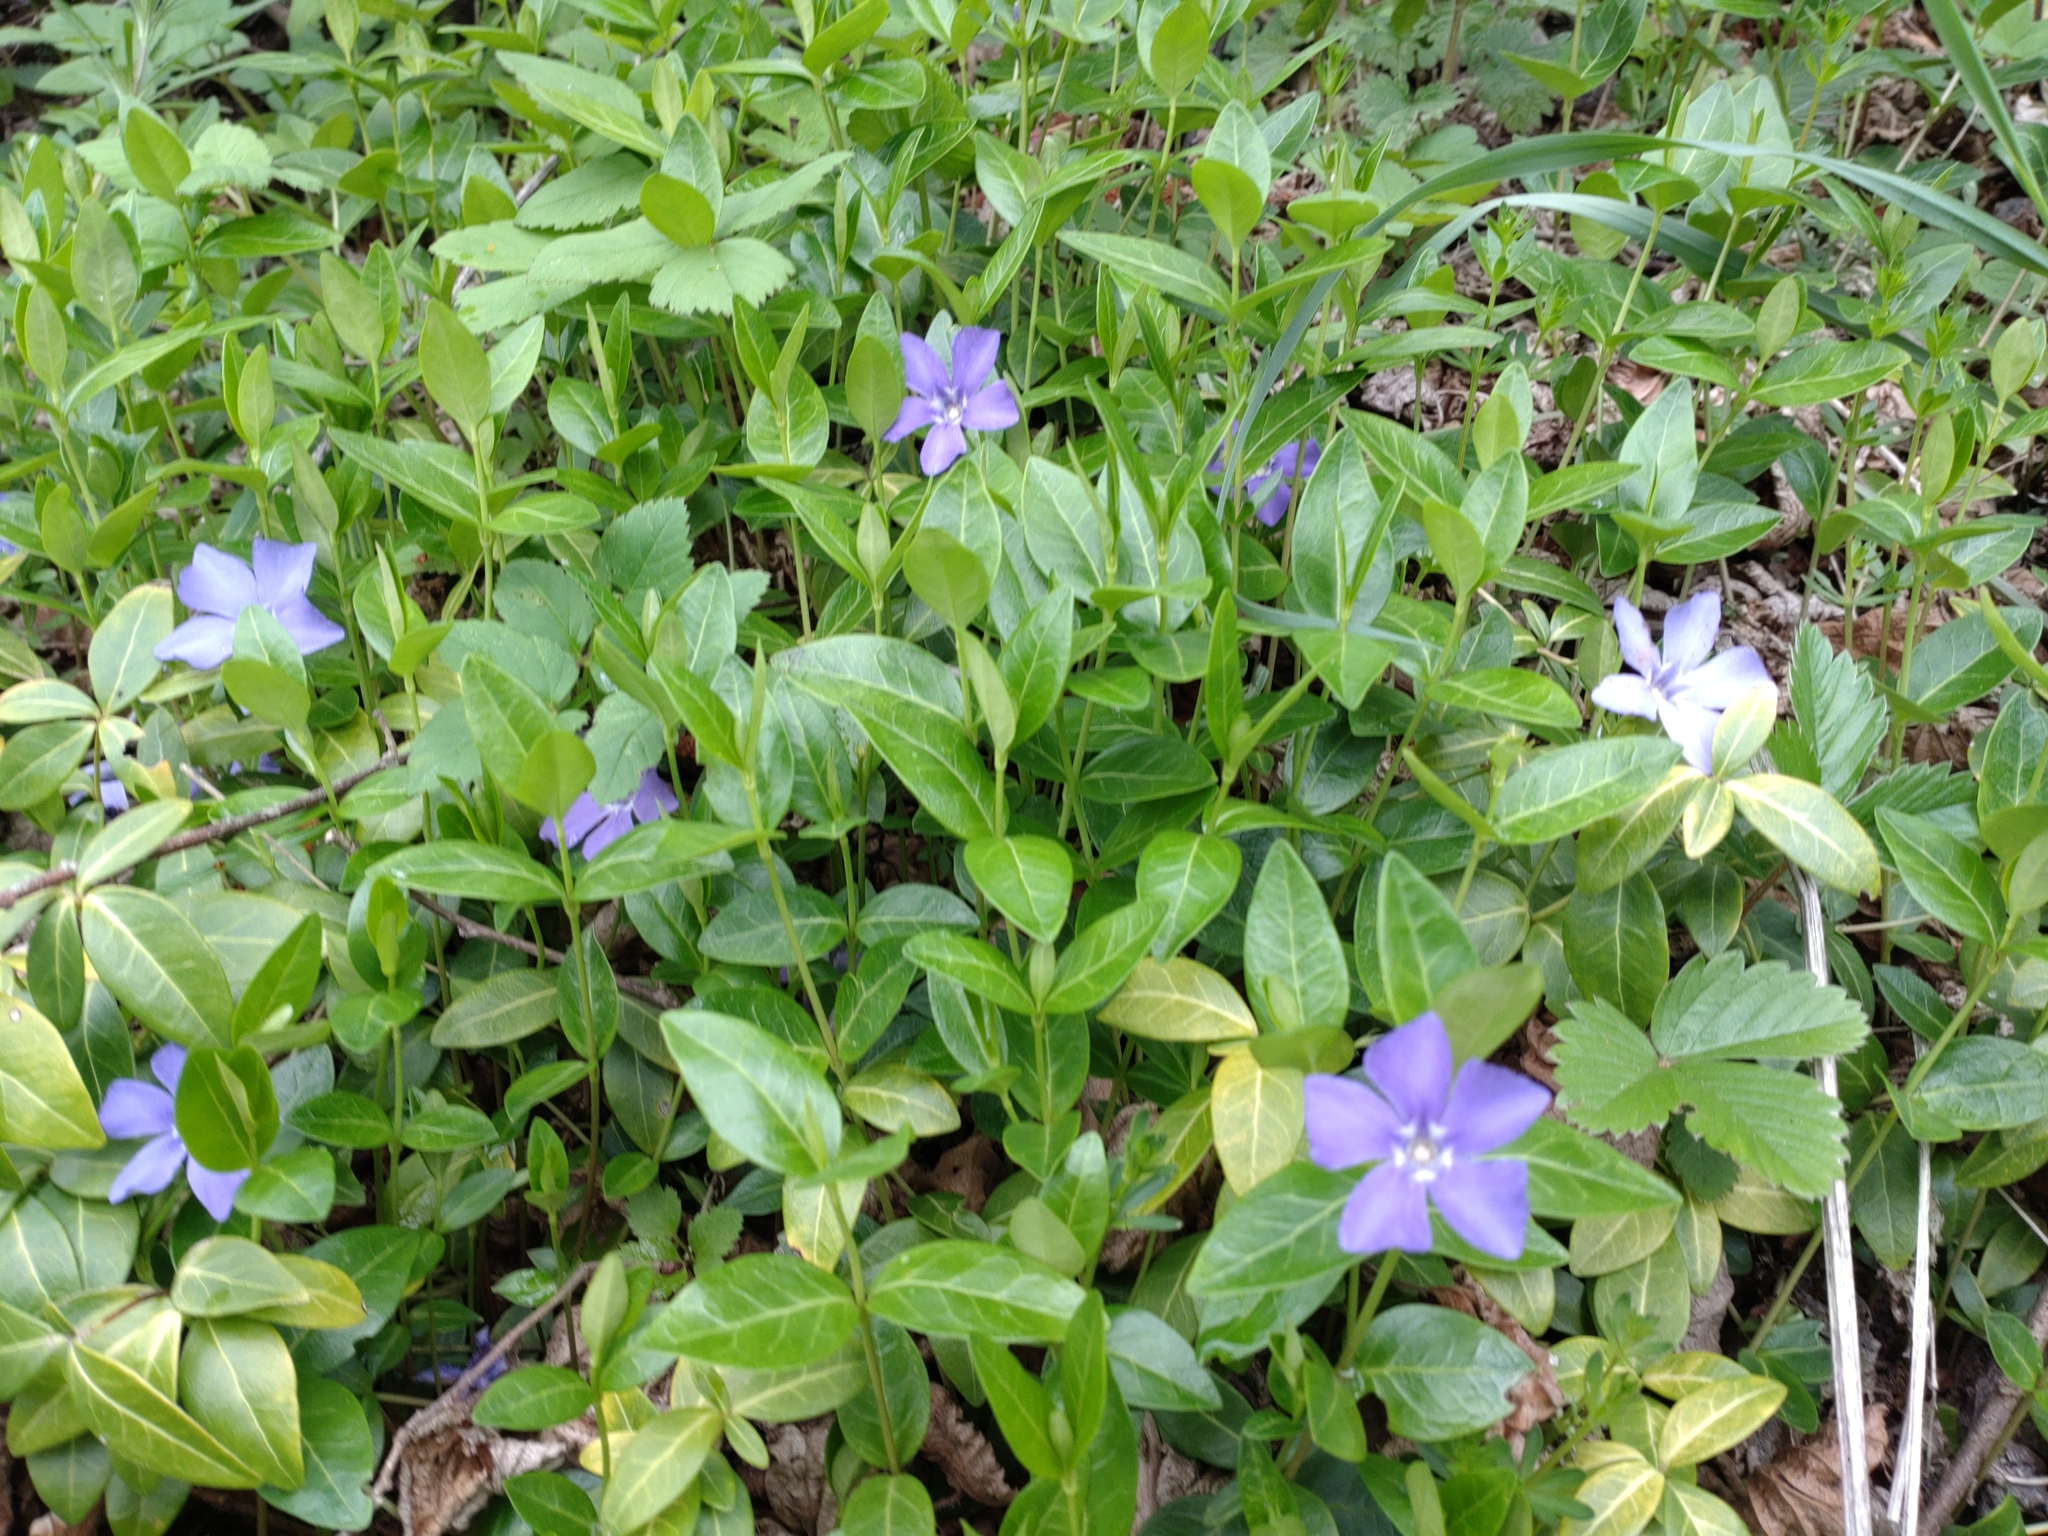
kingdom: Plantae
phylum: Tracheophyta
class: Magnoliopsida
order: Gentianales
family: Apocynaceae
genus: Vinca
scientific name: Vinca minor
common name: Lesser periwinkle
